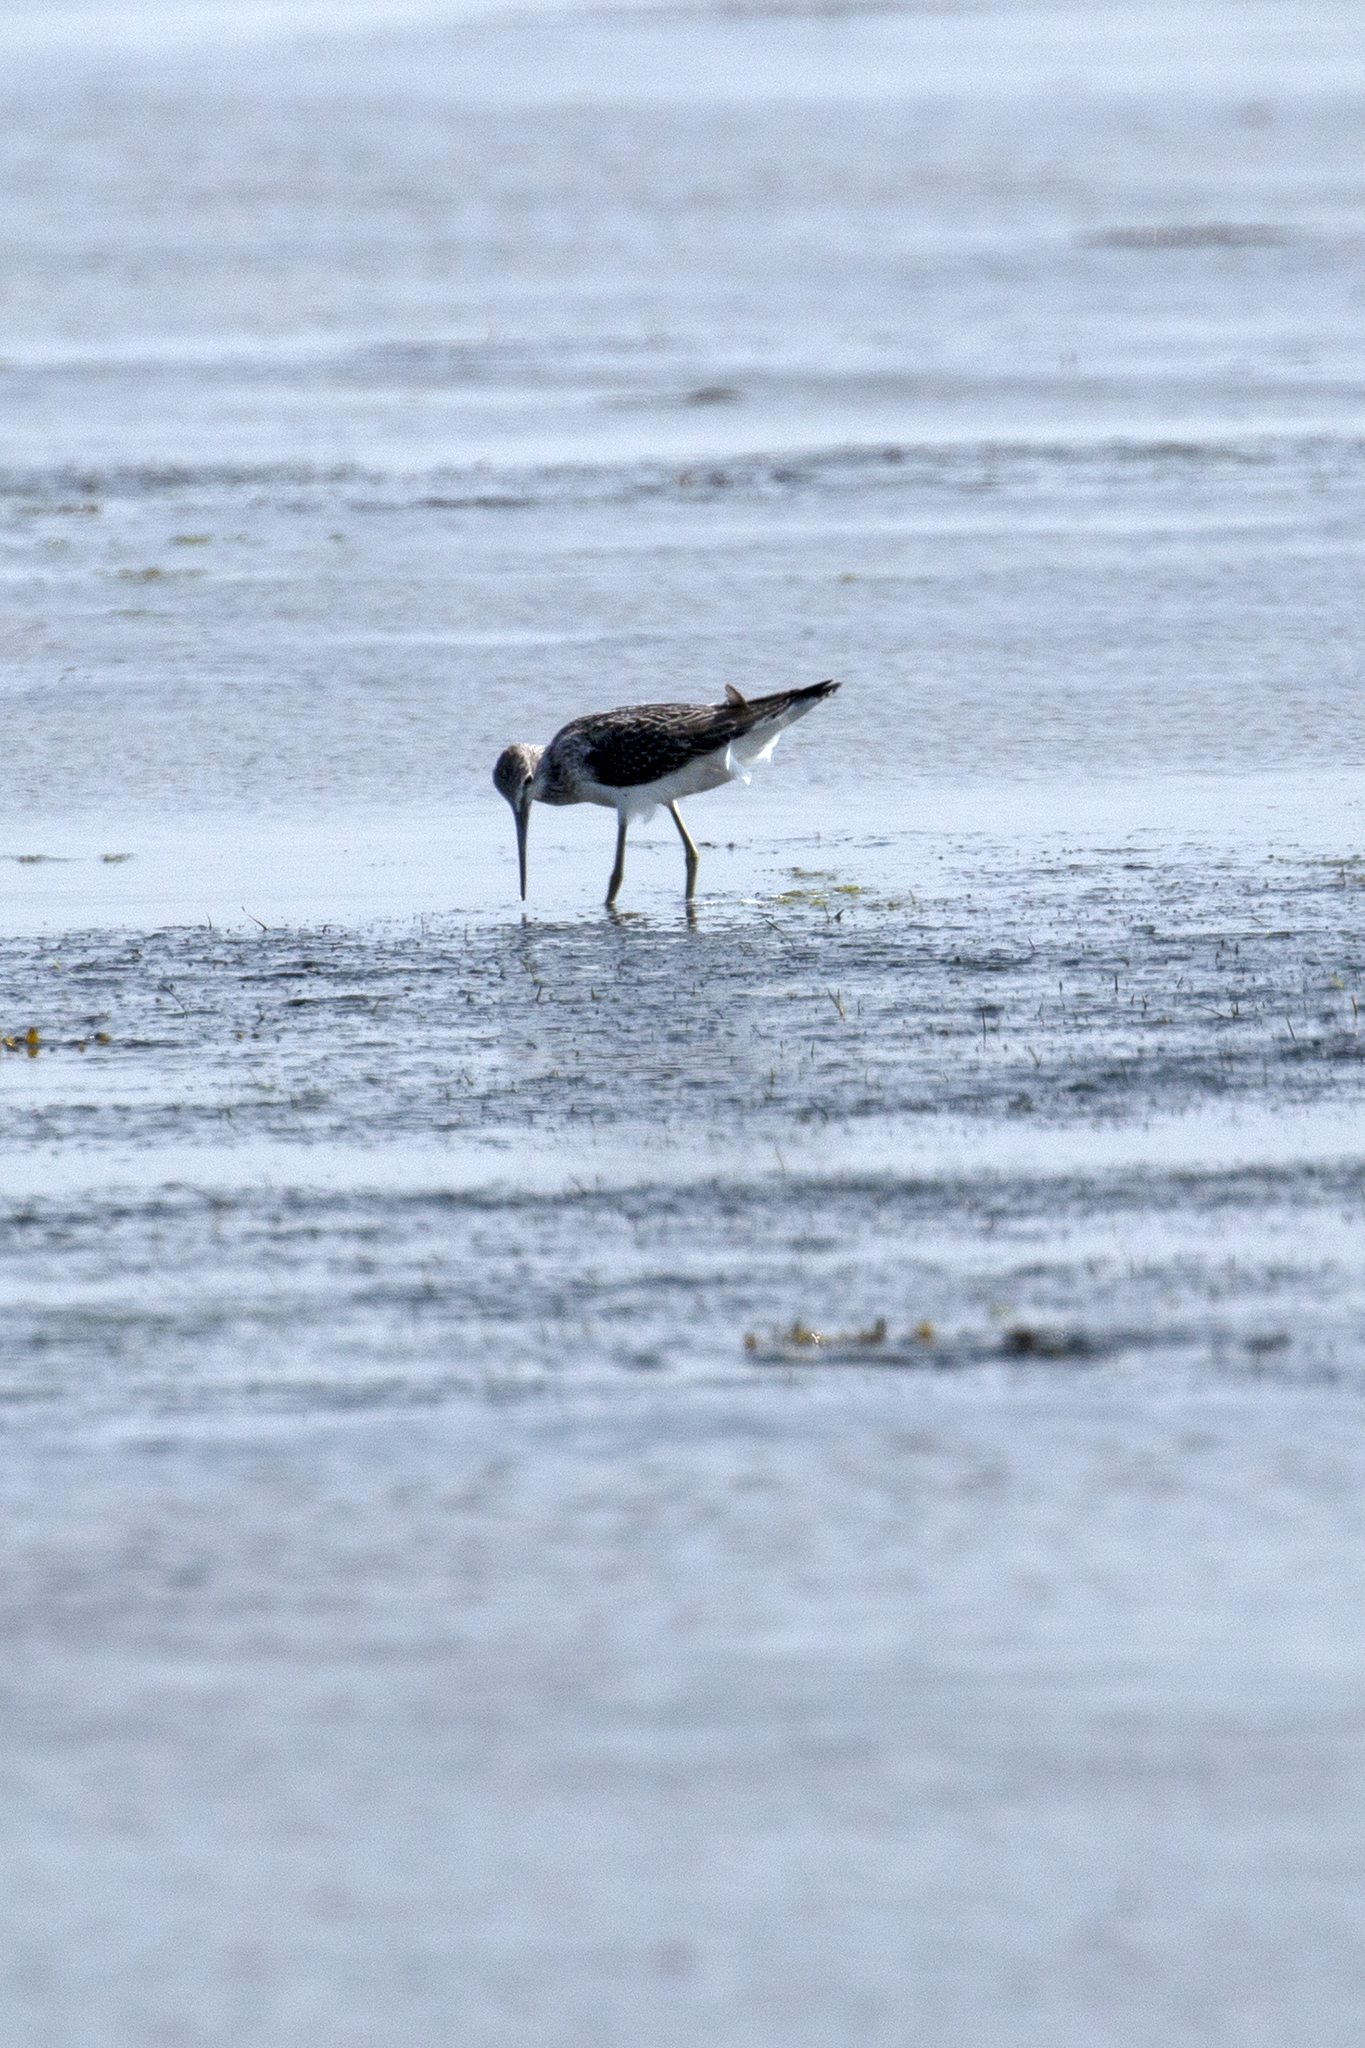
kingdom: Animalia
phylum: Chordata
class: Aves
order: Charadriiformes
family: Scolopacidae
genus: Tringa
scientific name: Tringa nebularia
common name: Common greenshank
